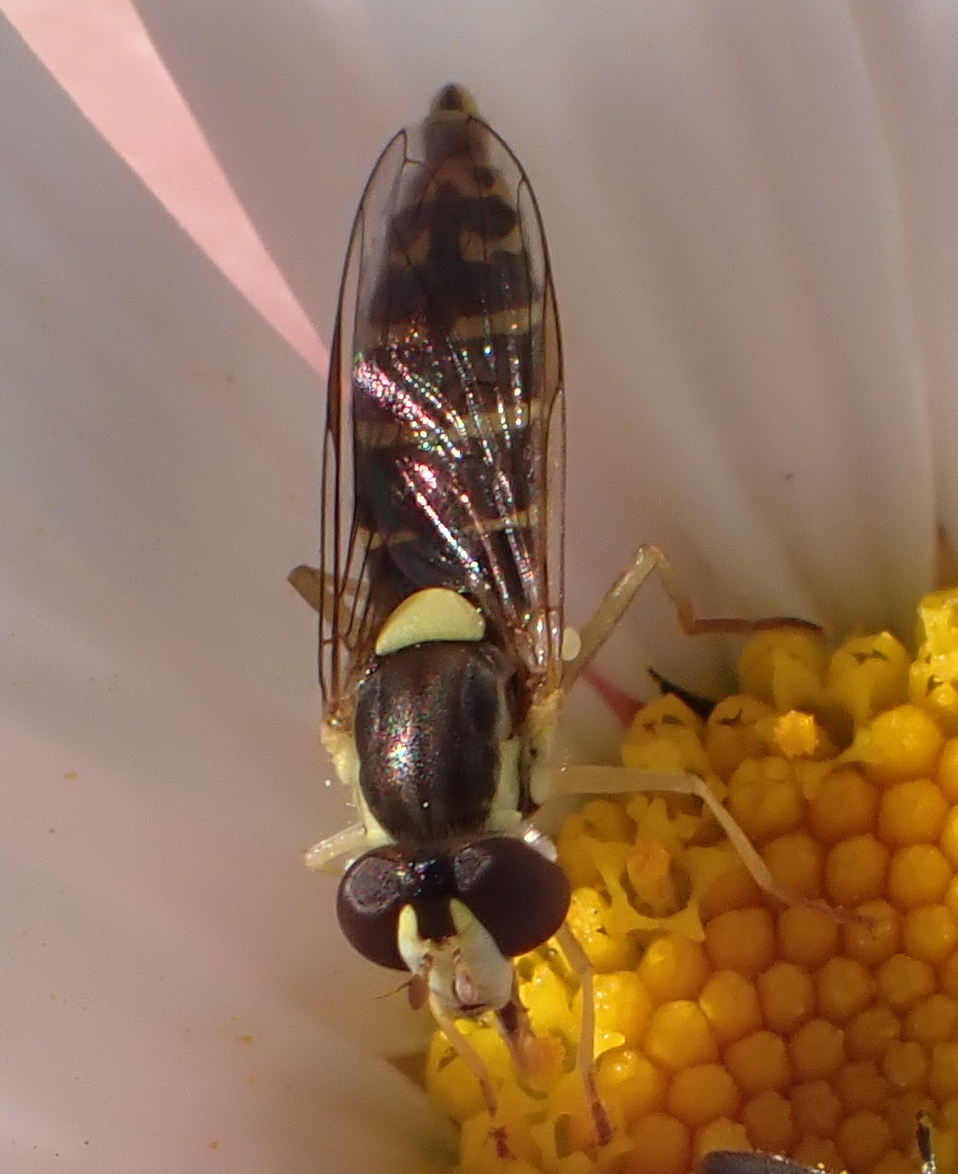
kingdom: Animalia
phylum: Arthropoda
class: Insecta
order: Diptera
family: Syrphidae
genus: Sphaerophoria
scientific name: Sphaerophoria
